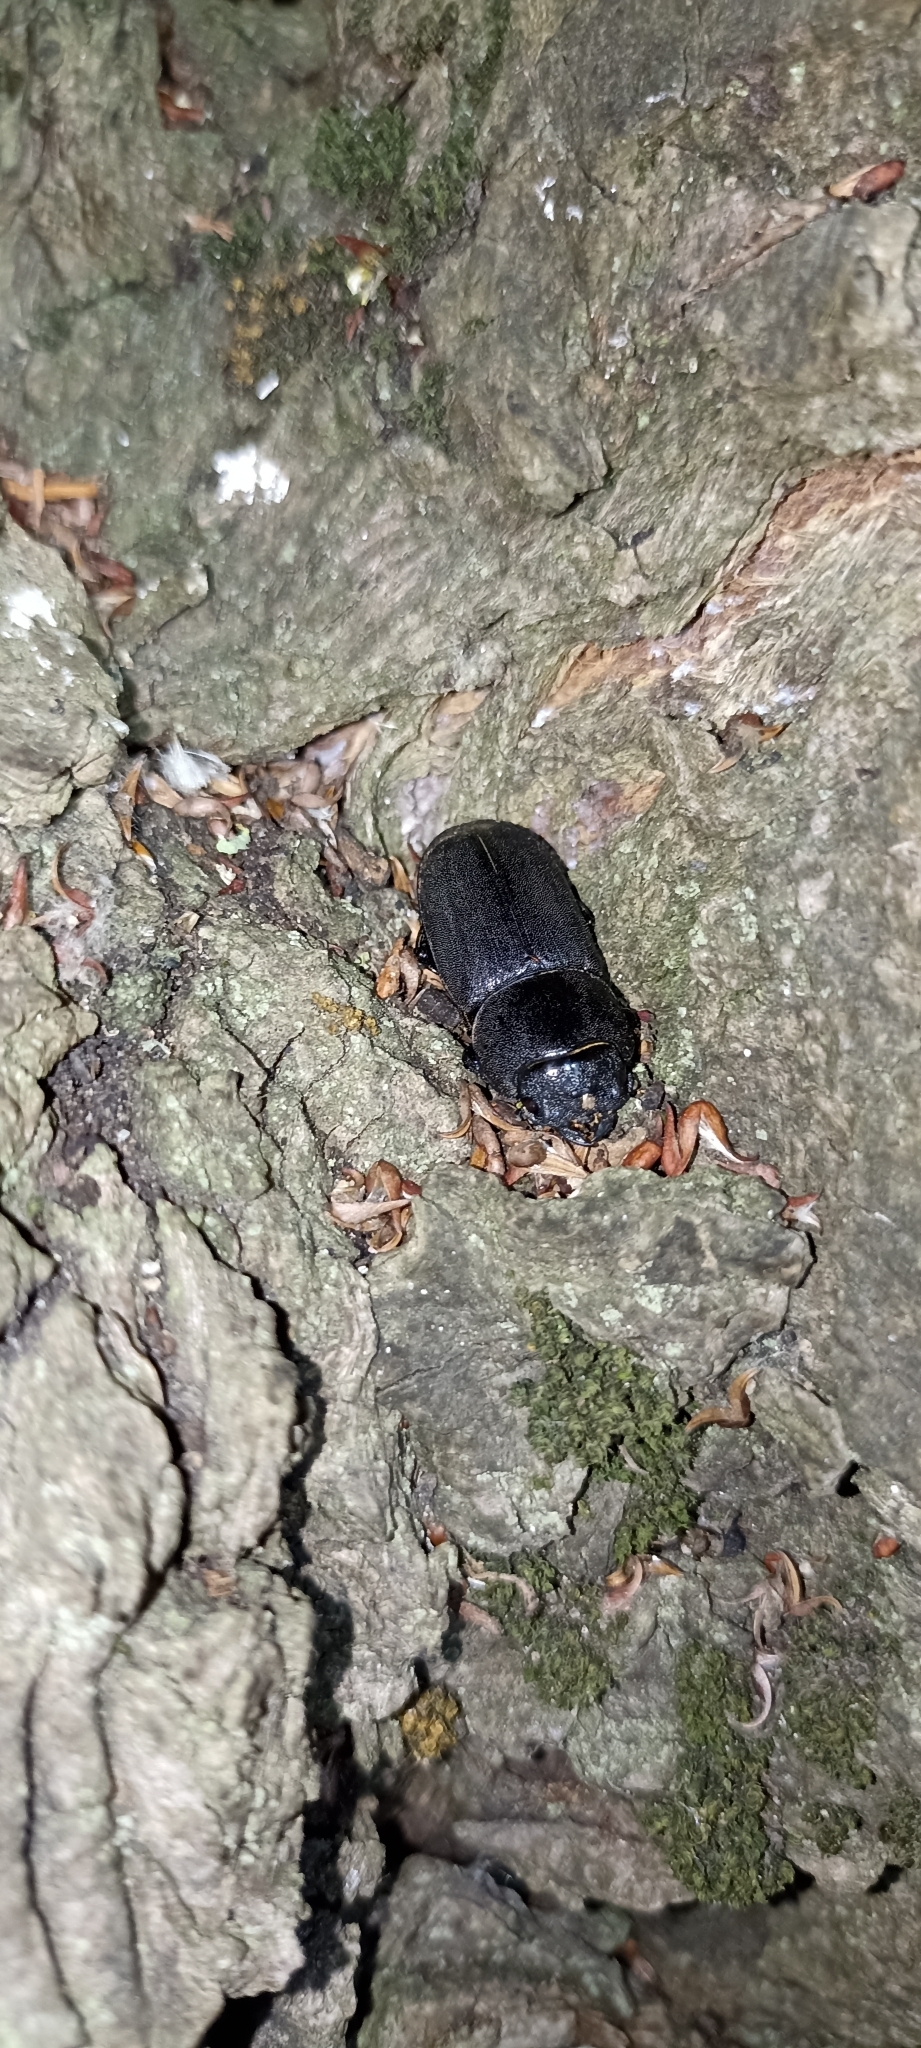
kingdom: Animalia
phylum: Arthropoda
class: Insecta
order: Coleoptera
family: Lucanidae
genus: Dorcus
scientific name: Dorcus parallelipipedus
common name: Lesser stag beetle
